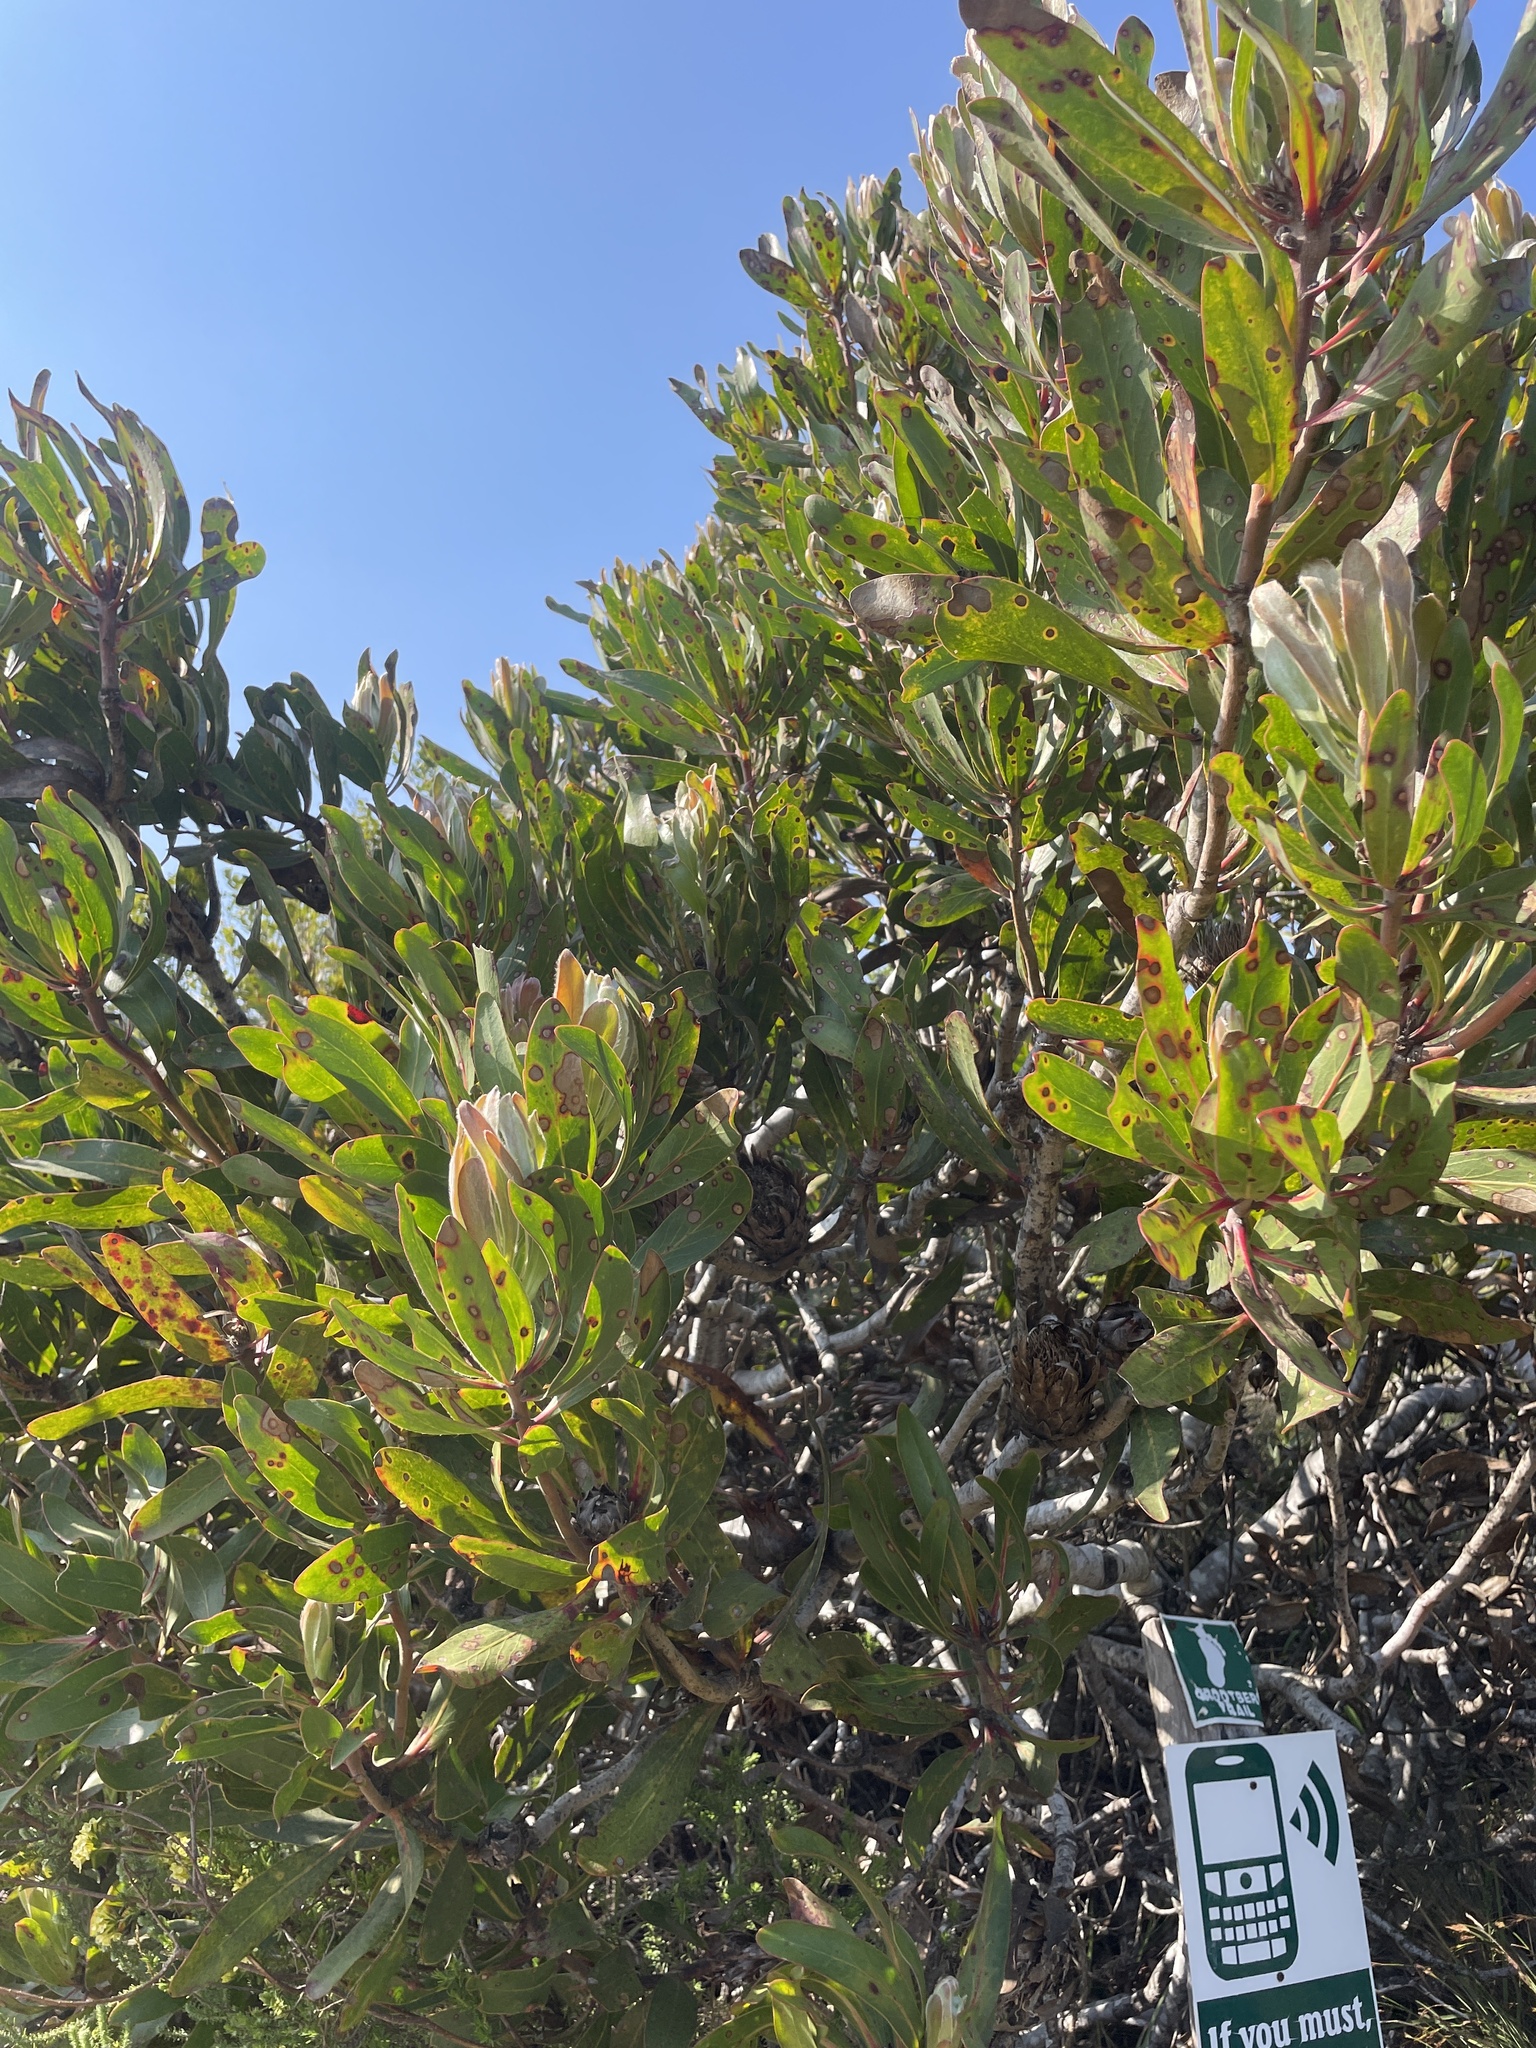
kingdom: Plantae
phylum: Tracheophyta
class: Magnoliopsida
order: Proteales
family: Proteaceae
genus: Protea
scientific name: Protea obtusifolia
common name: Bredasdorp sugarbush
